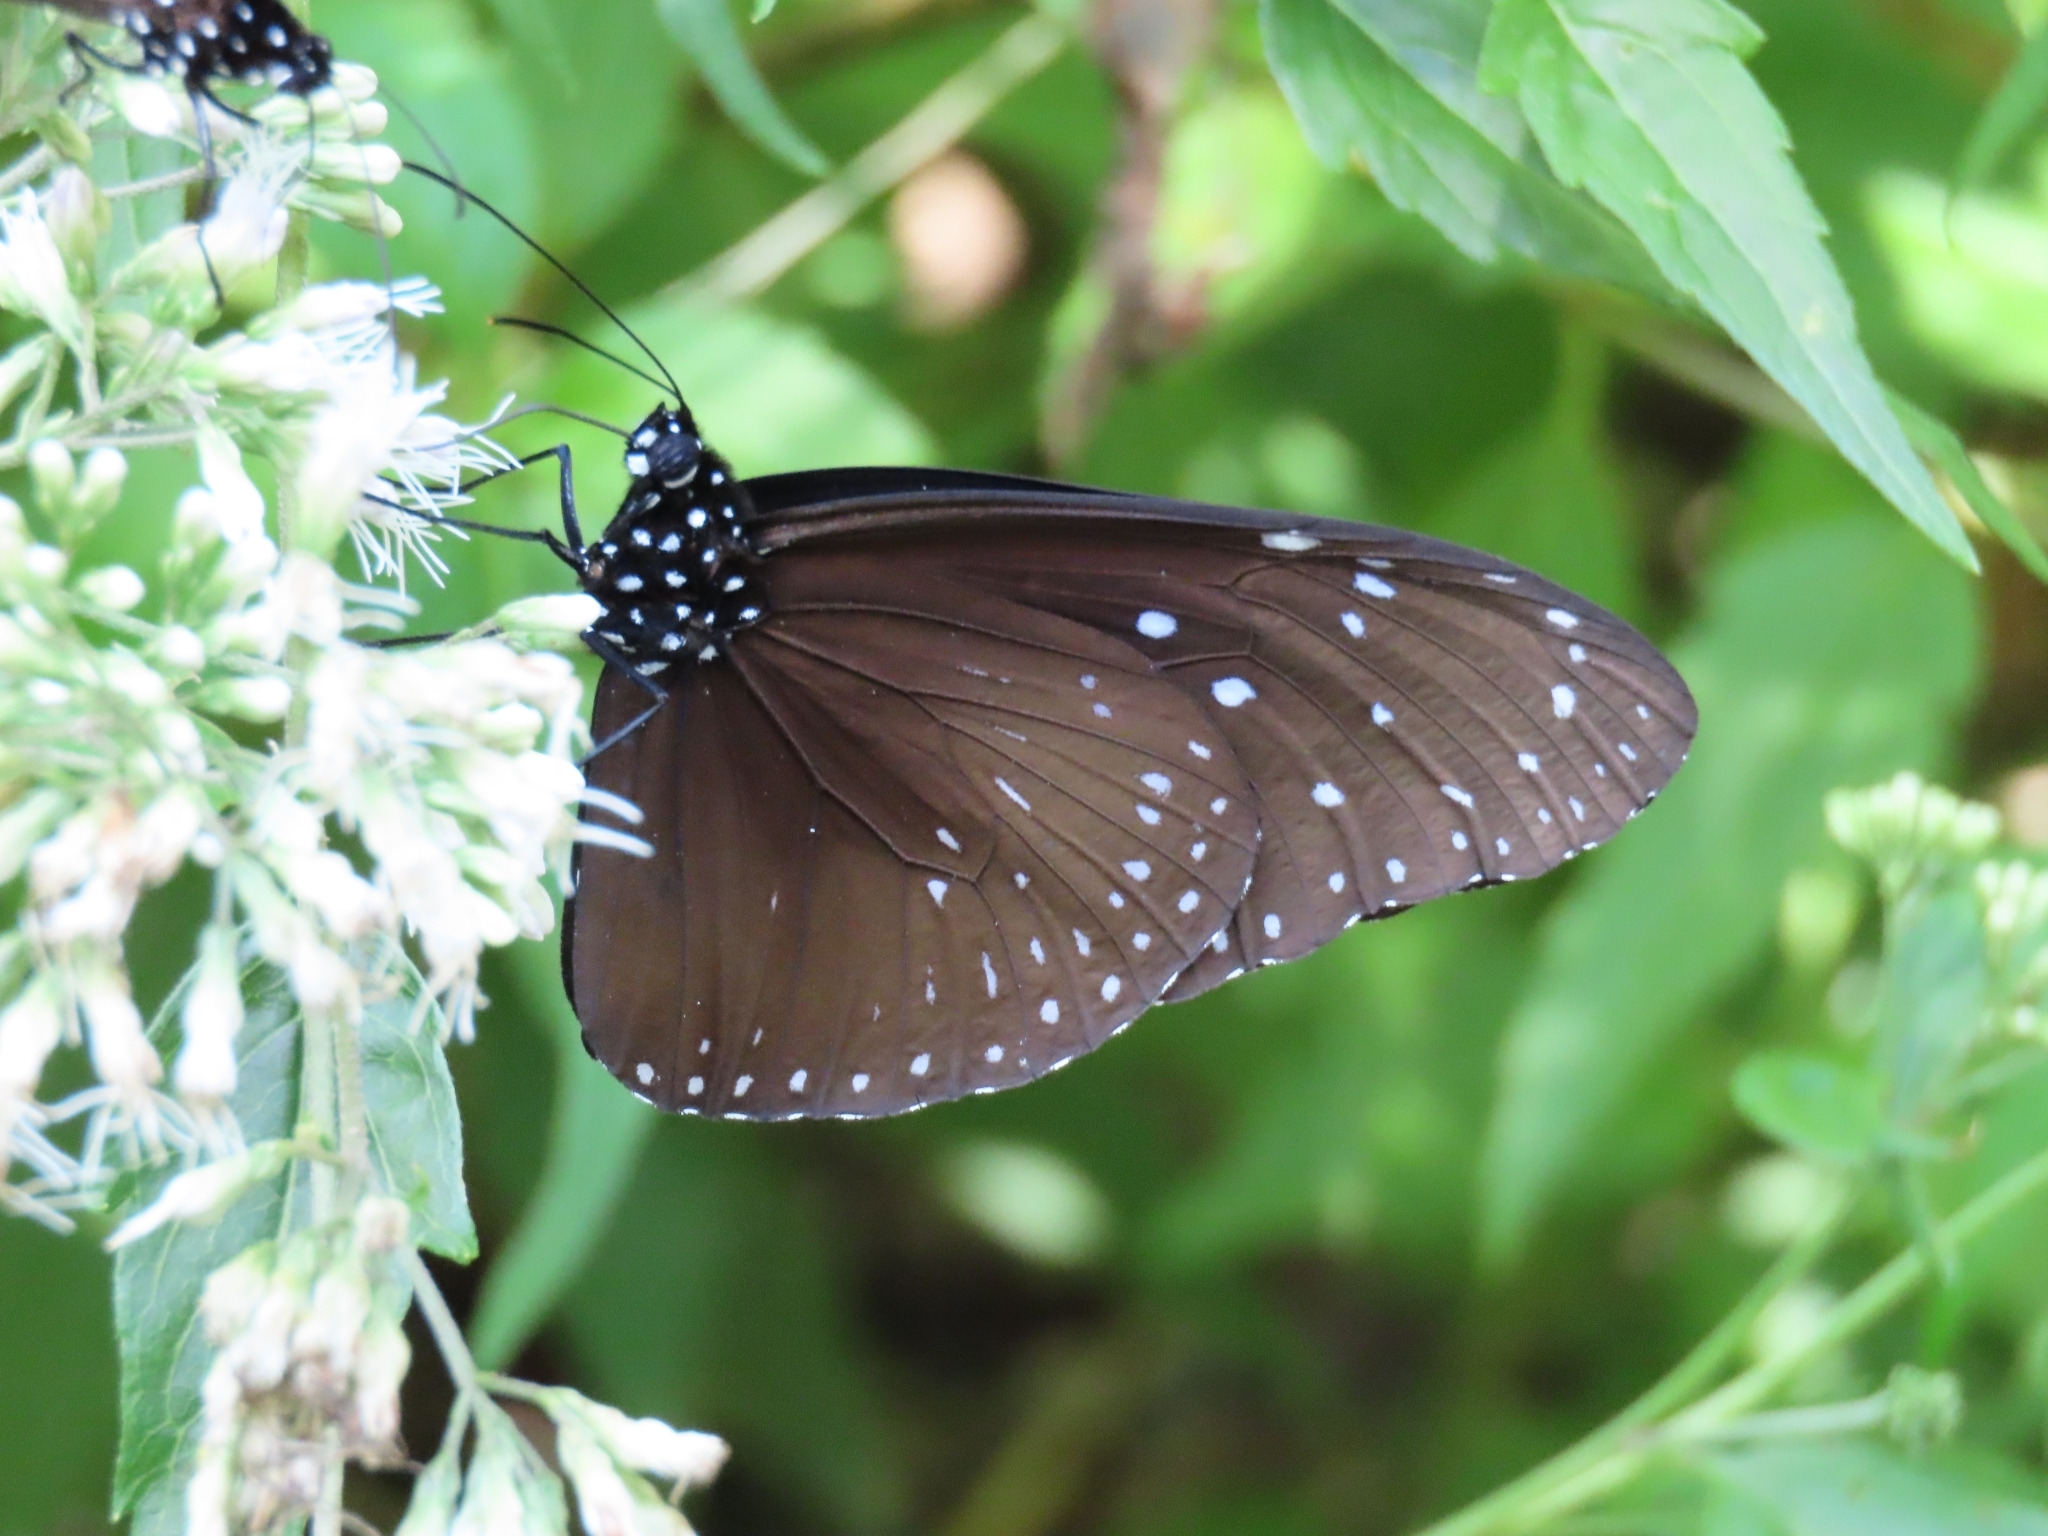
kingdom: Animalia
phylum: Arthropoda
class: Insecta
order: Lepidoptera
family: Nymphalidae
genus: Euploea
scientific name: Euploea mulciber
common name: Striped blue crow butterfly
